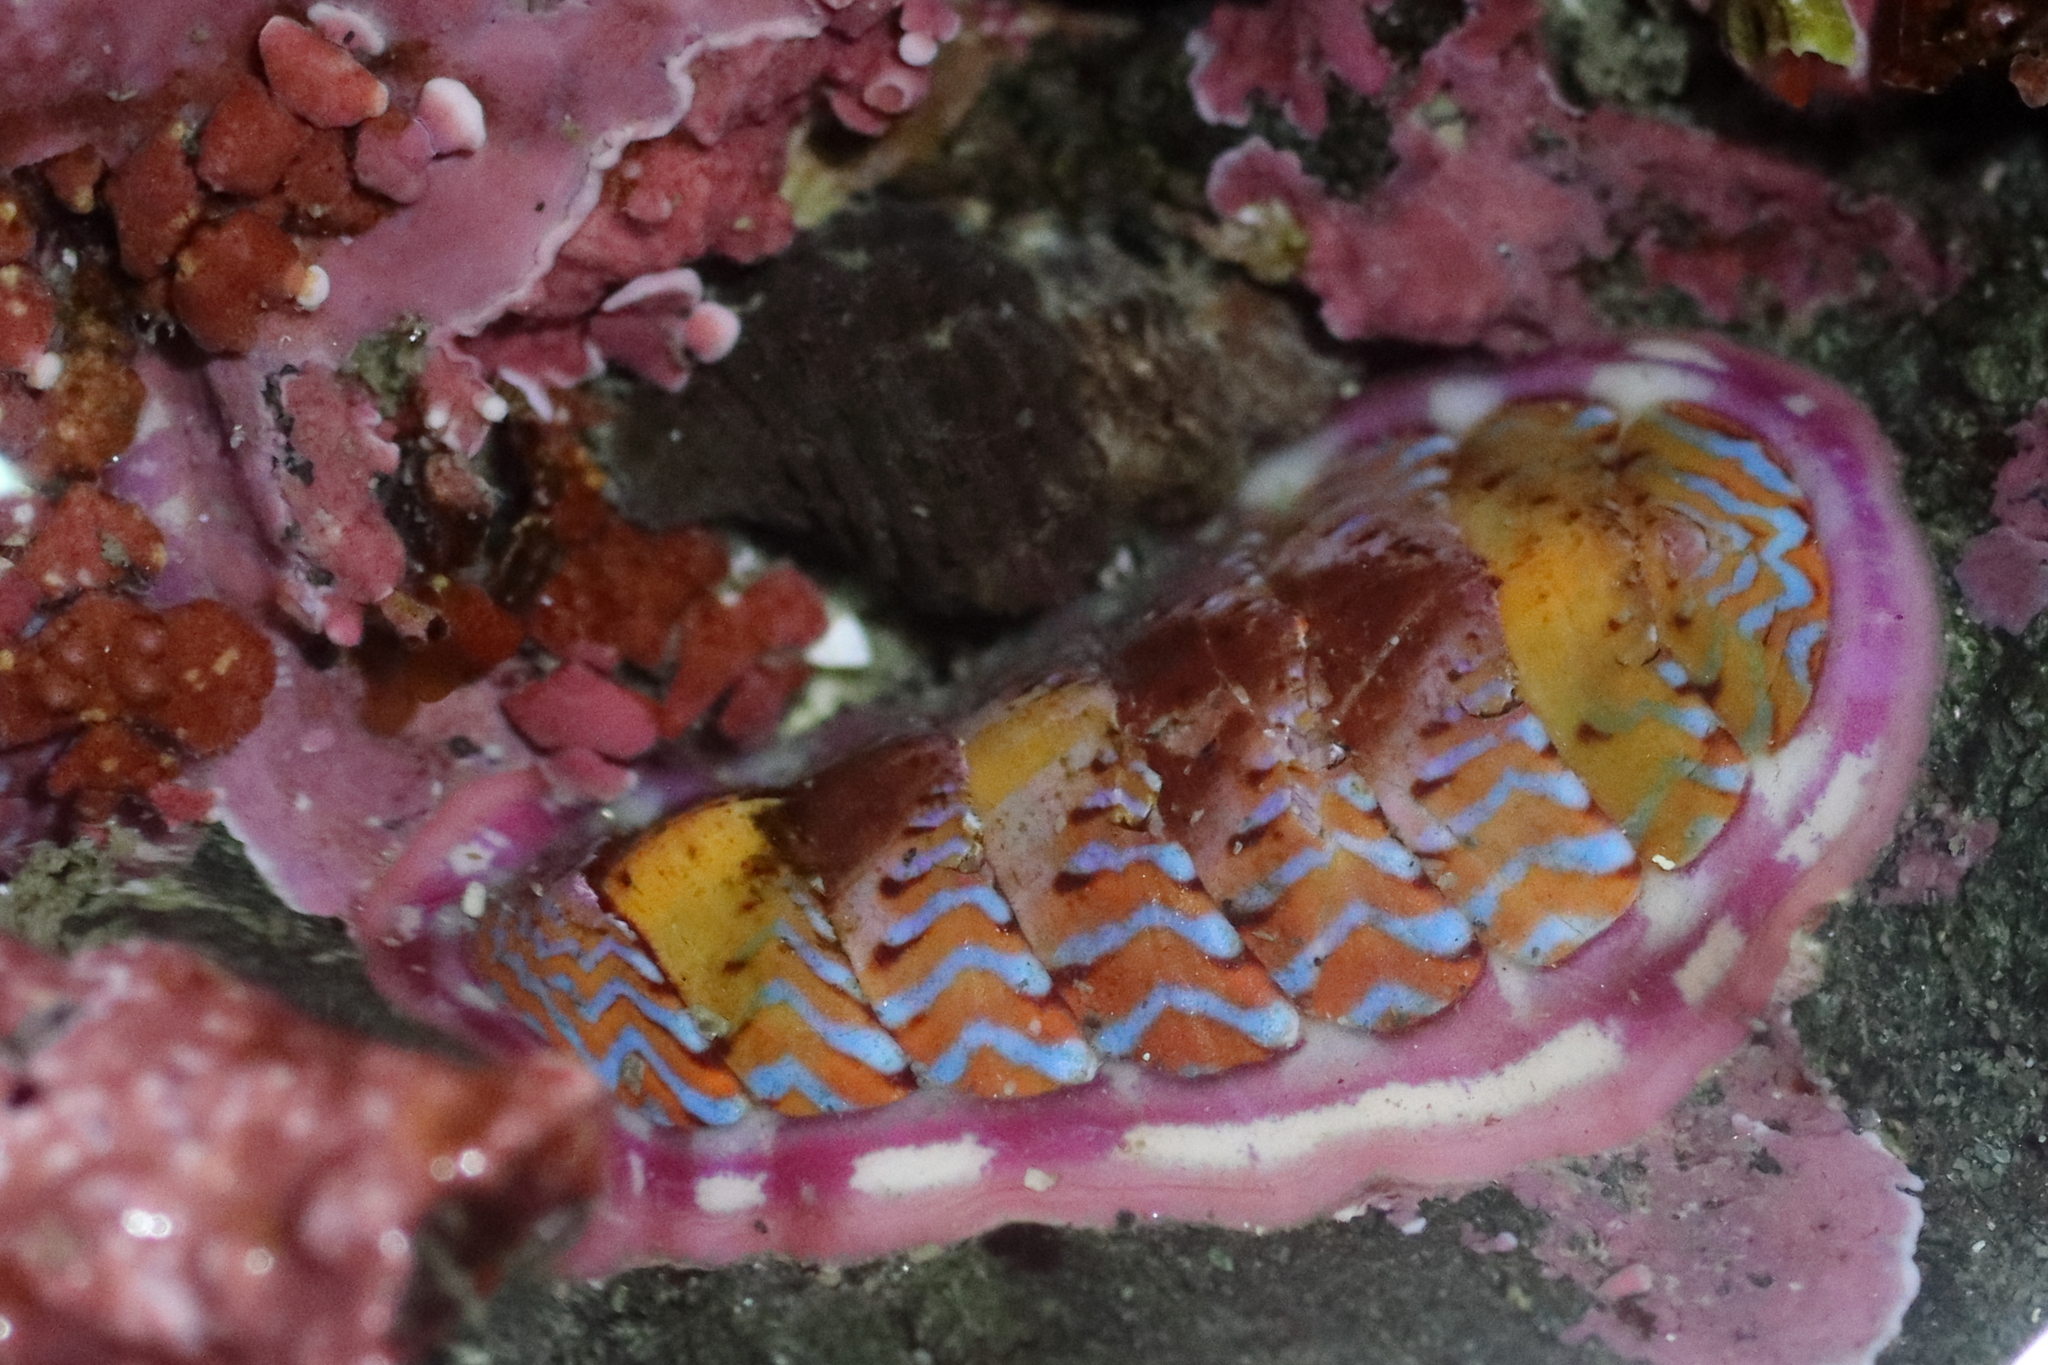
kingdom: Animalia
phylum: Mollusca
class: Polyplacophora
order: Chitonida
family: Tonicellidae
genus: Tonicella
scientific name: Tonicella undocaerulea
